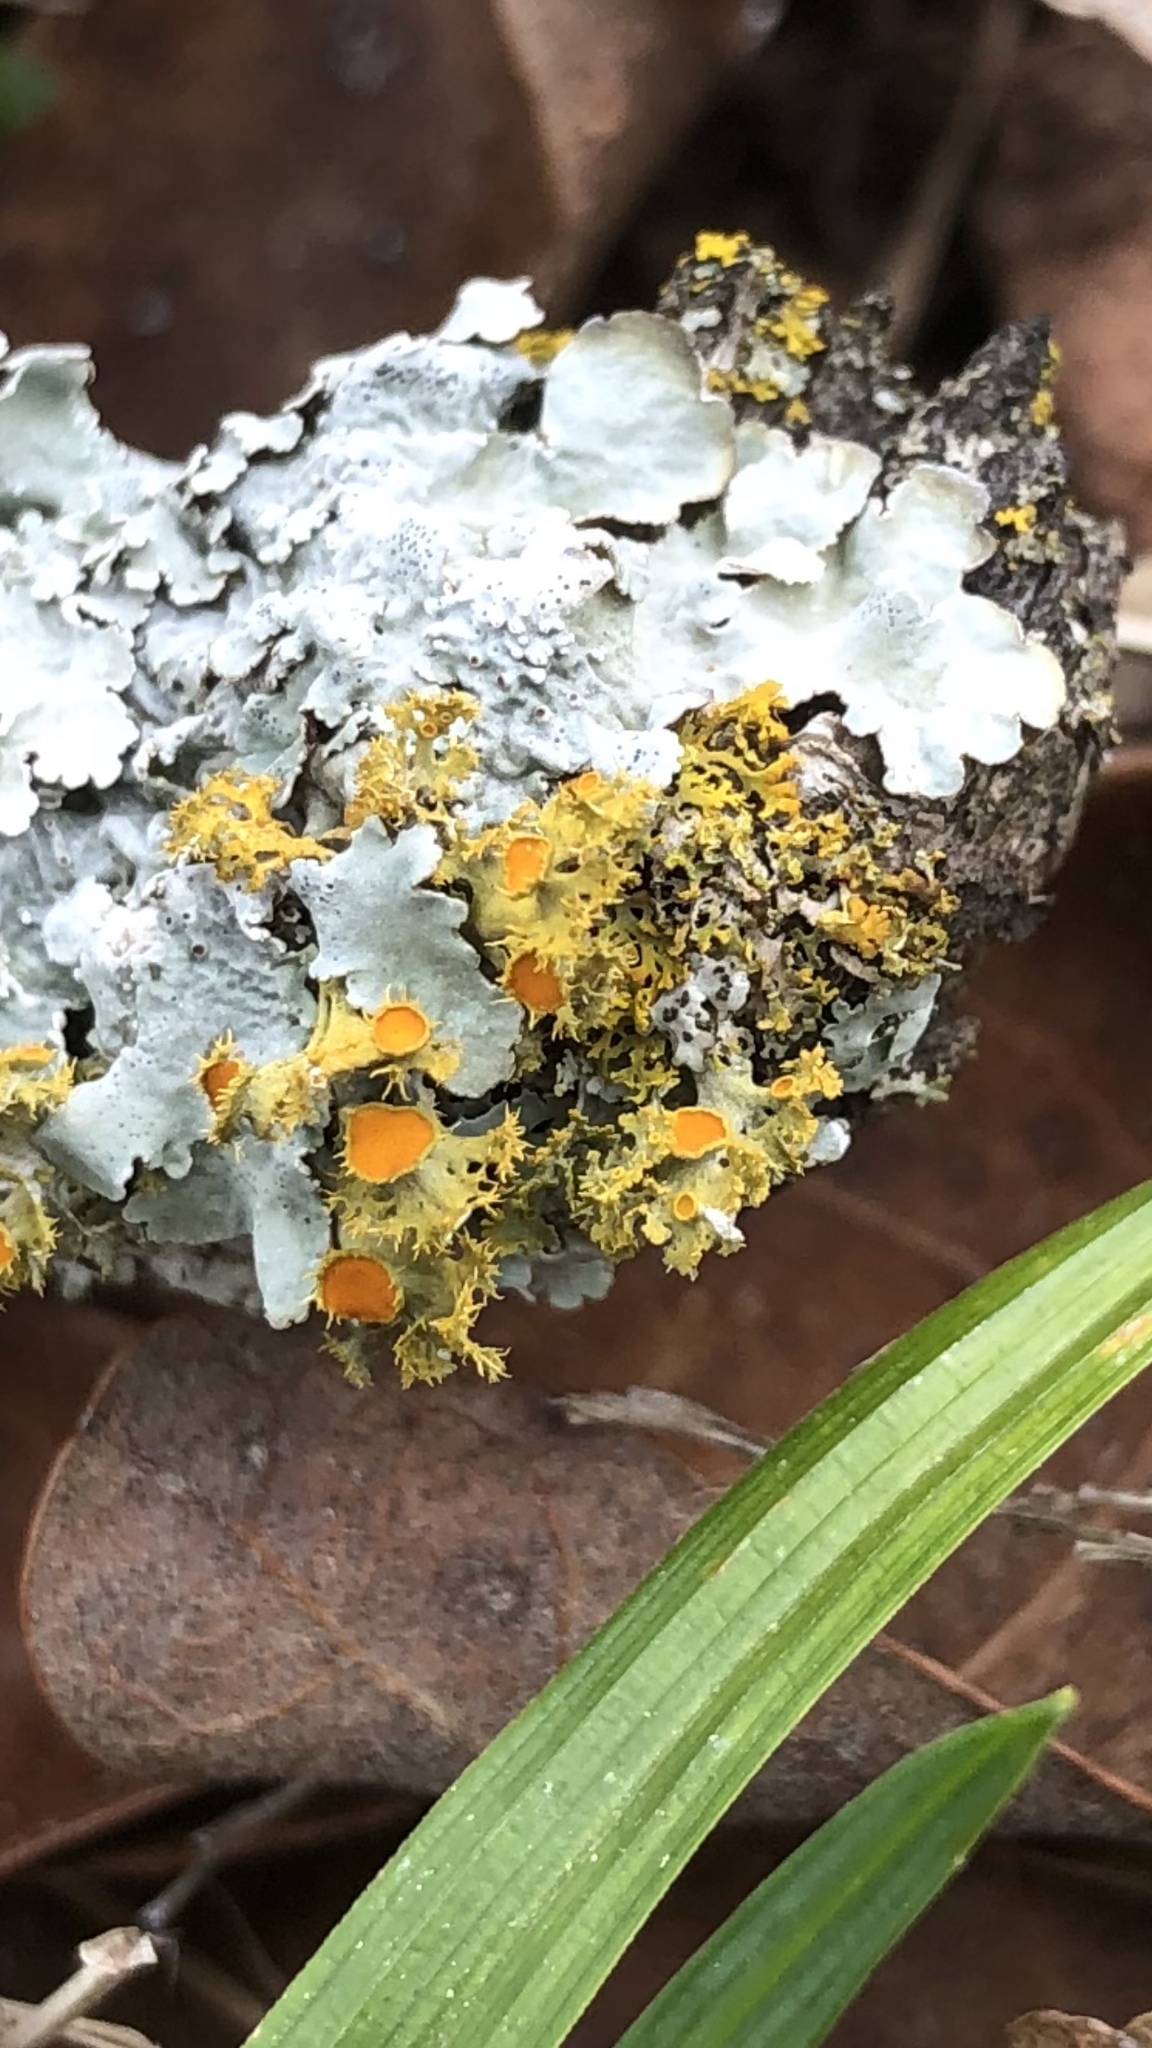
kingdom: Fungi
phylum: Ascomycota
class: Lecanoromycetes
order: Teloschistales
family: Teloschistaceae
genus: Niorma
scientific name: Niorma chrysophthalma
